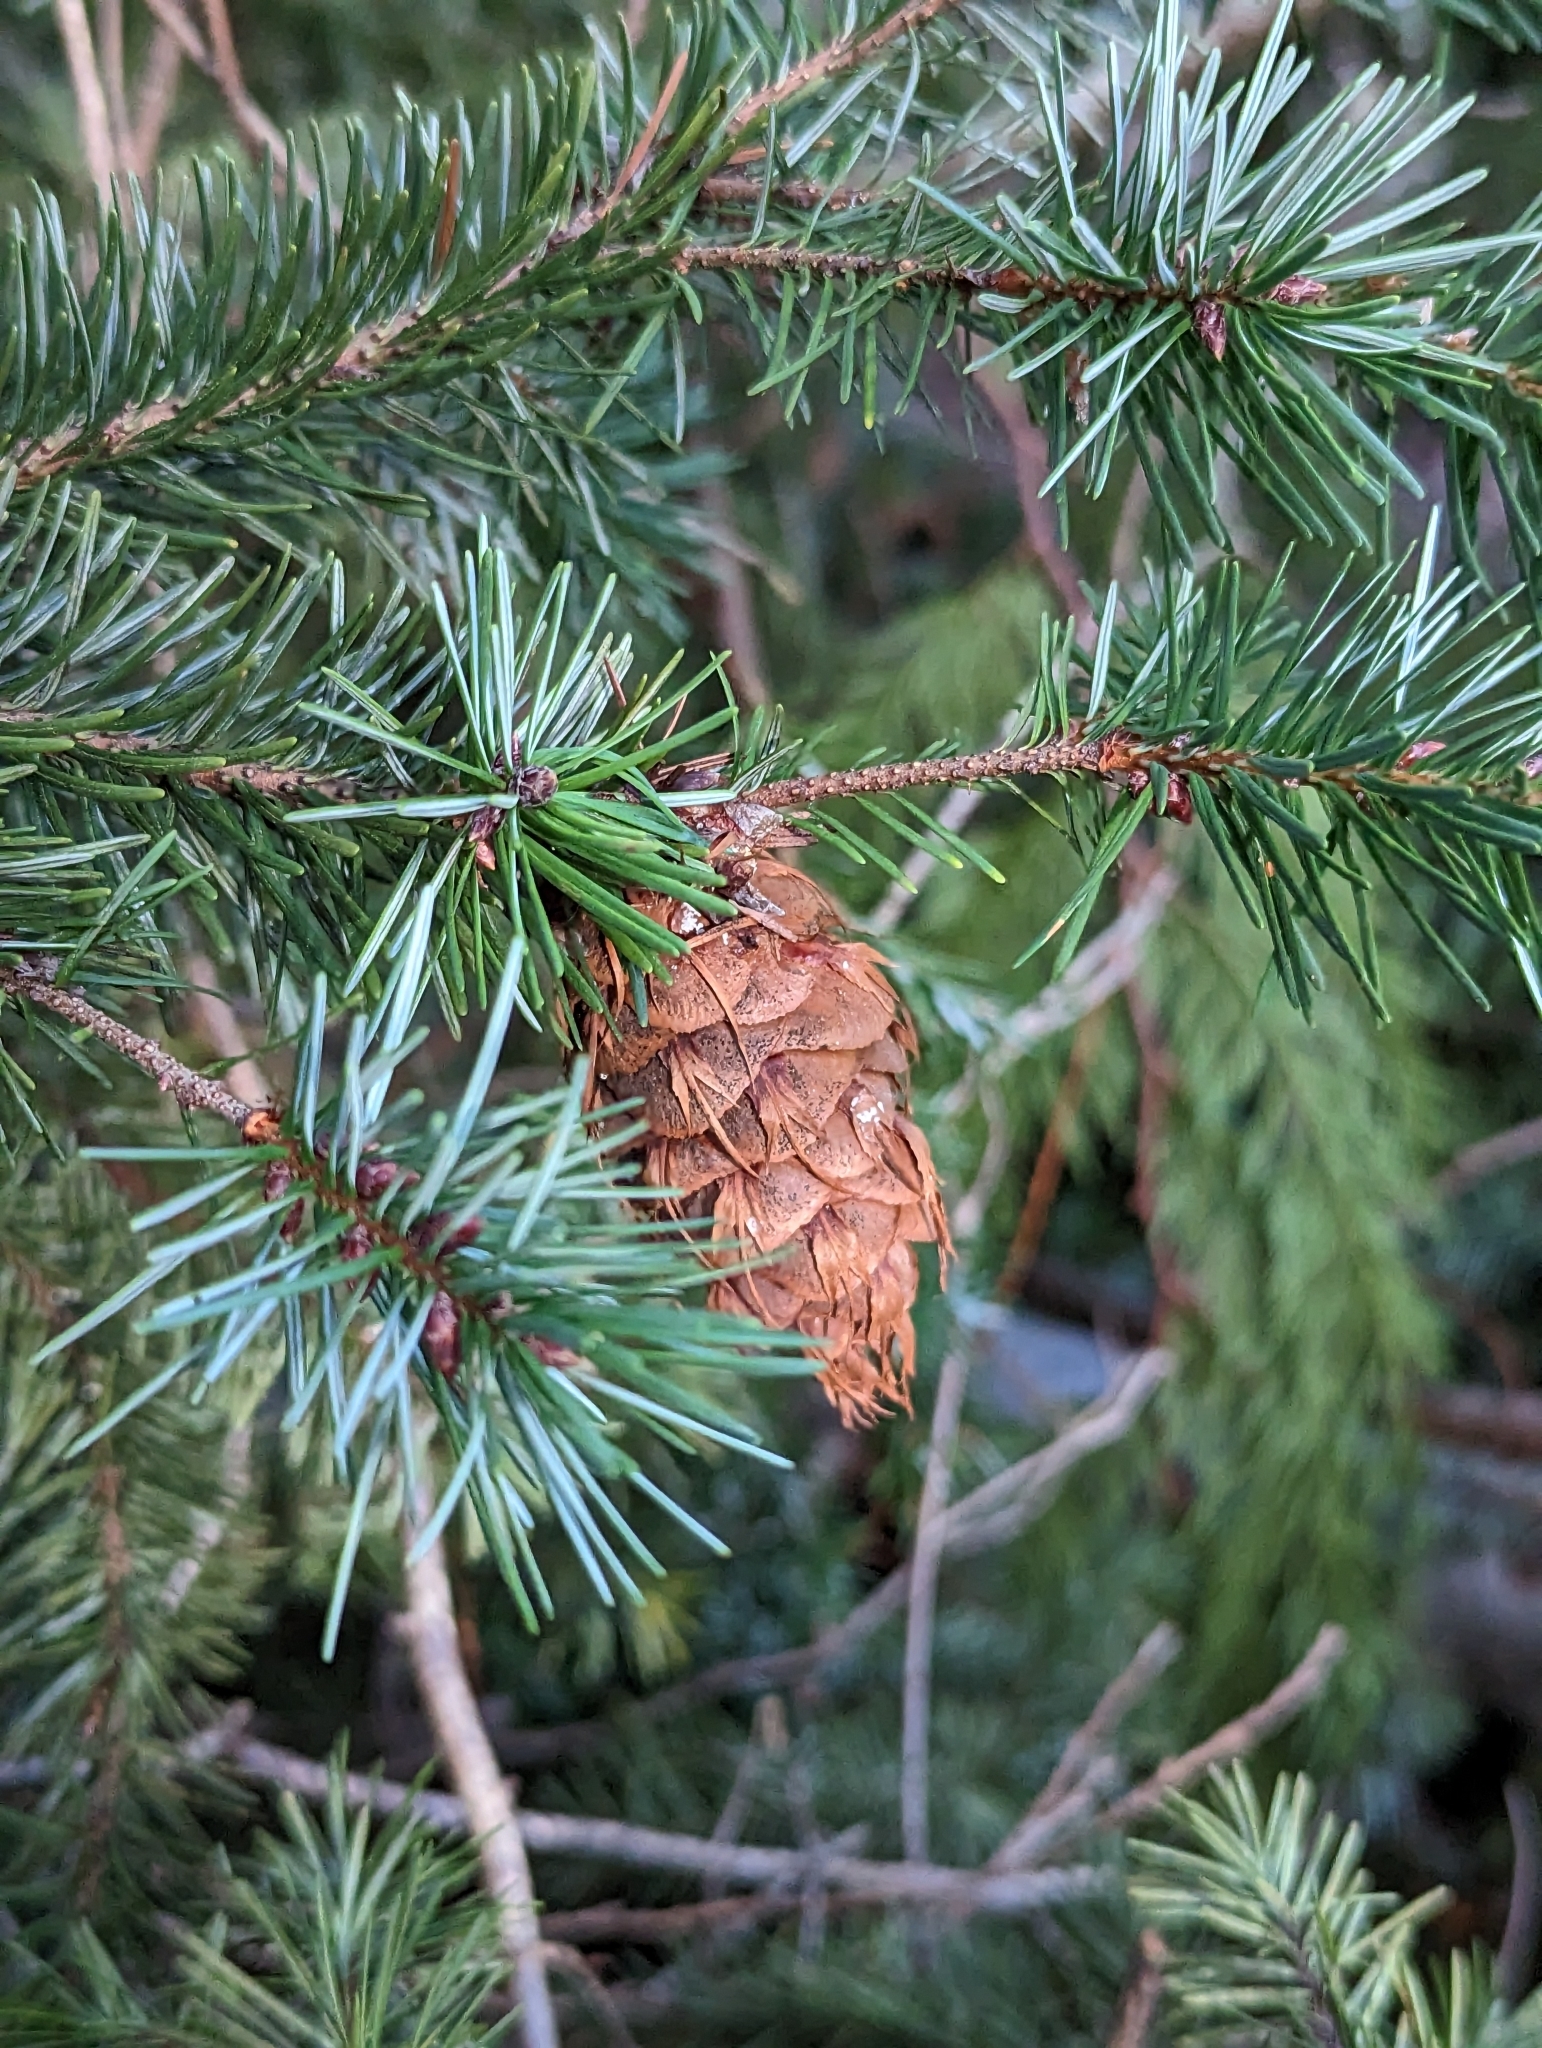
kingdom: Plantae
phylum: Tracheophyta
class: Pinopsida
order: Pinales
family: Pinaceae
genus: Pseudotsuga
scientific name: Pseudotsuga menziesii
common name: Douglas fir
